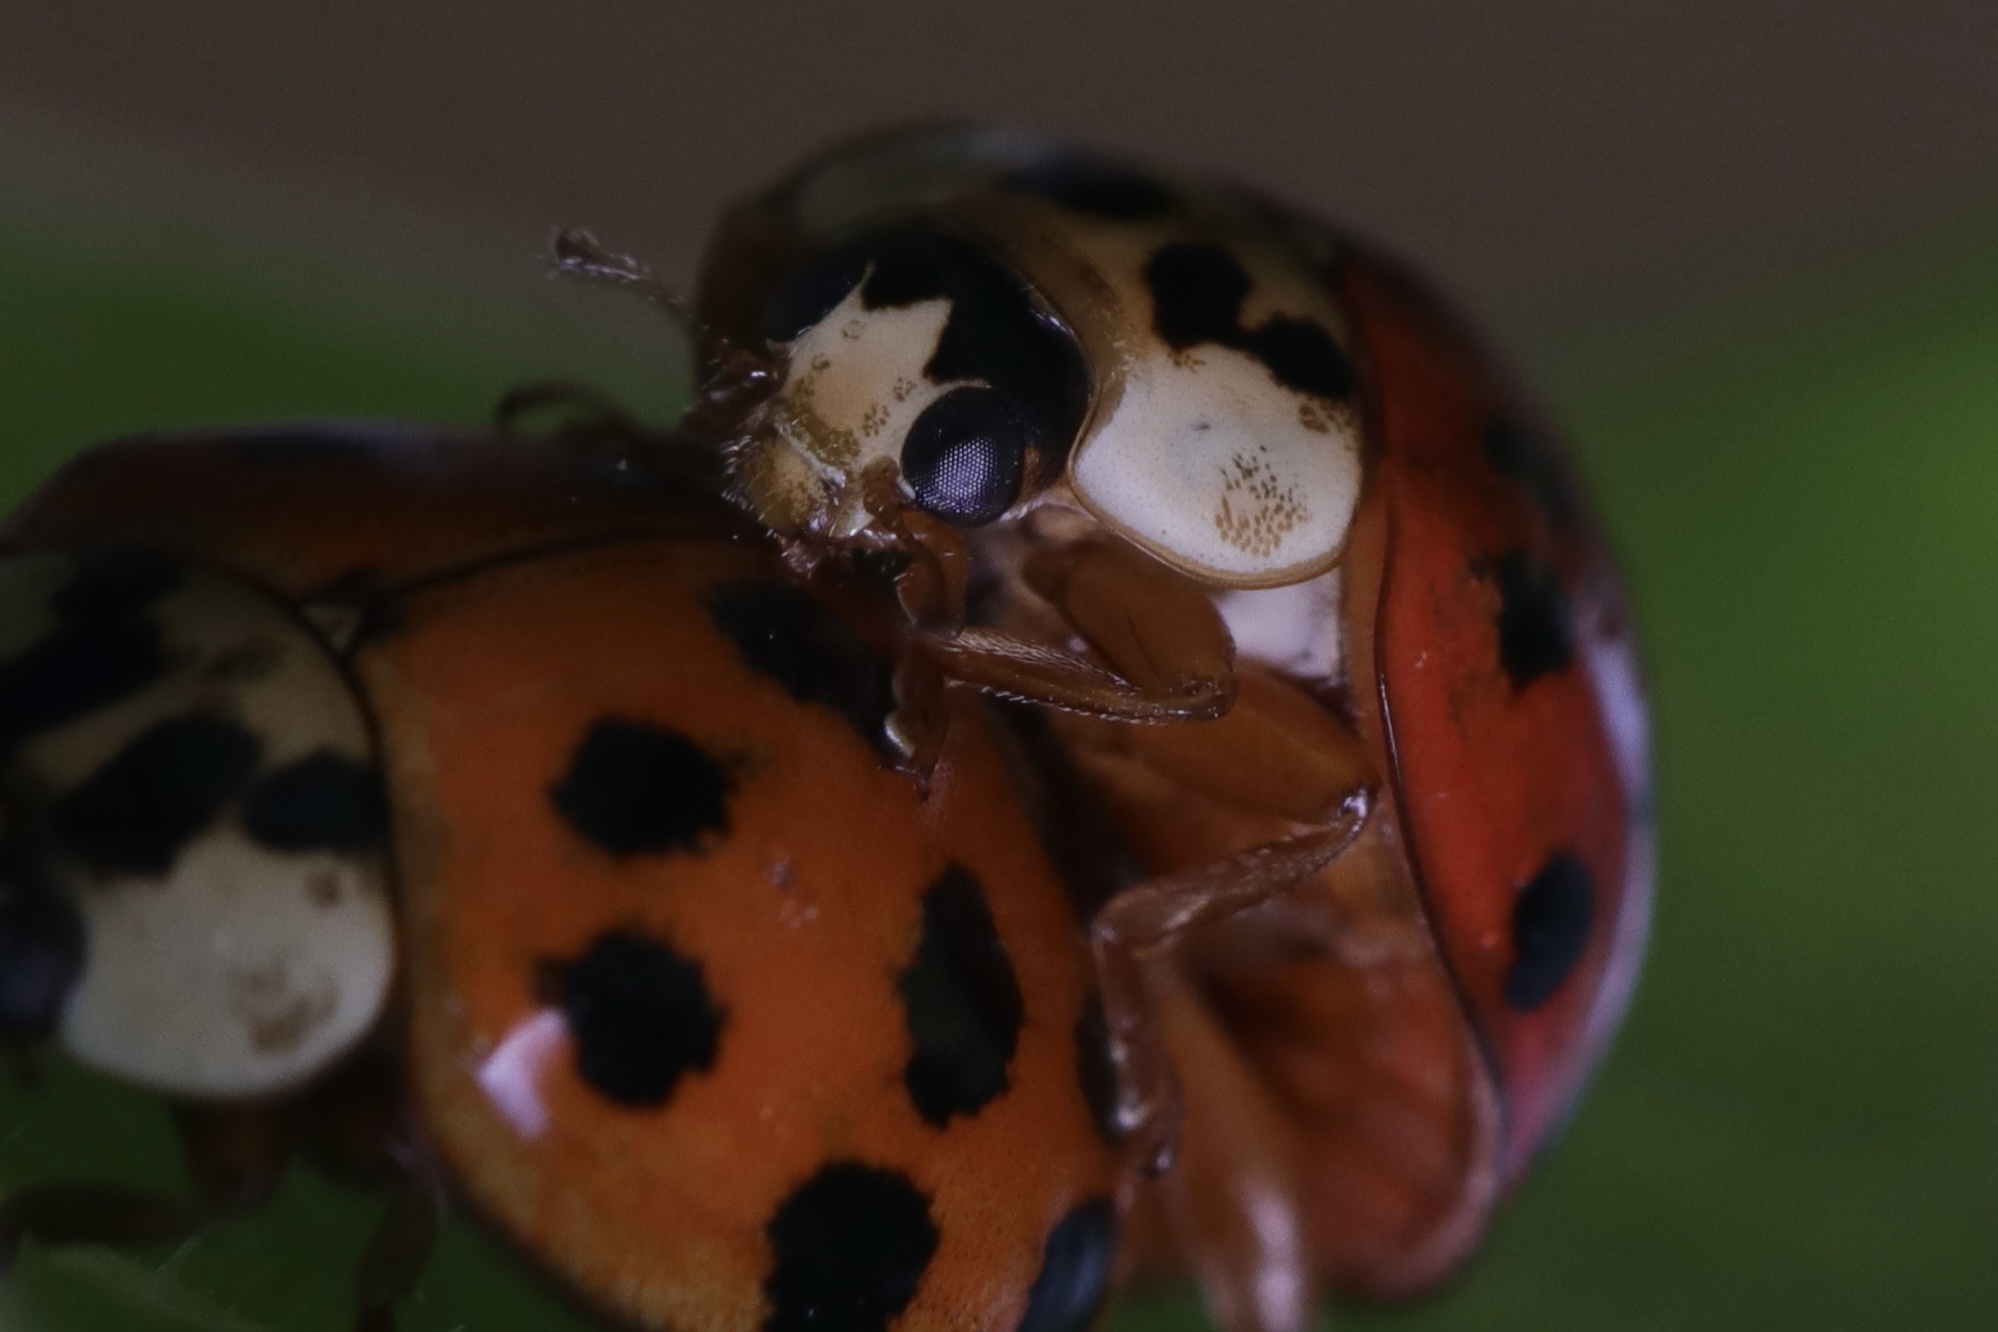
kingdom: Animalia
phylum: Arthropoda
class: Insecta
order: Coleoptera
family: Coccinellidae
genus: Harmonia
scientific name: Harmonia axyridis
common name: Harlequin ladybird
